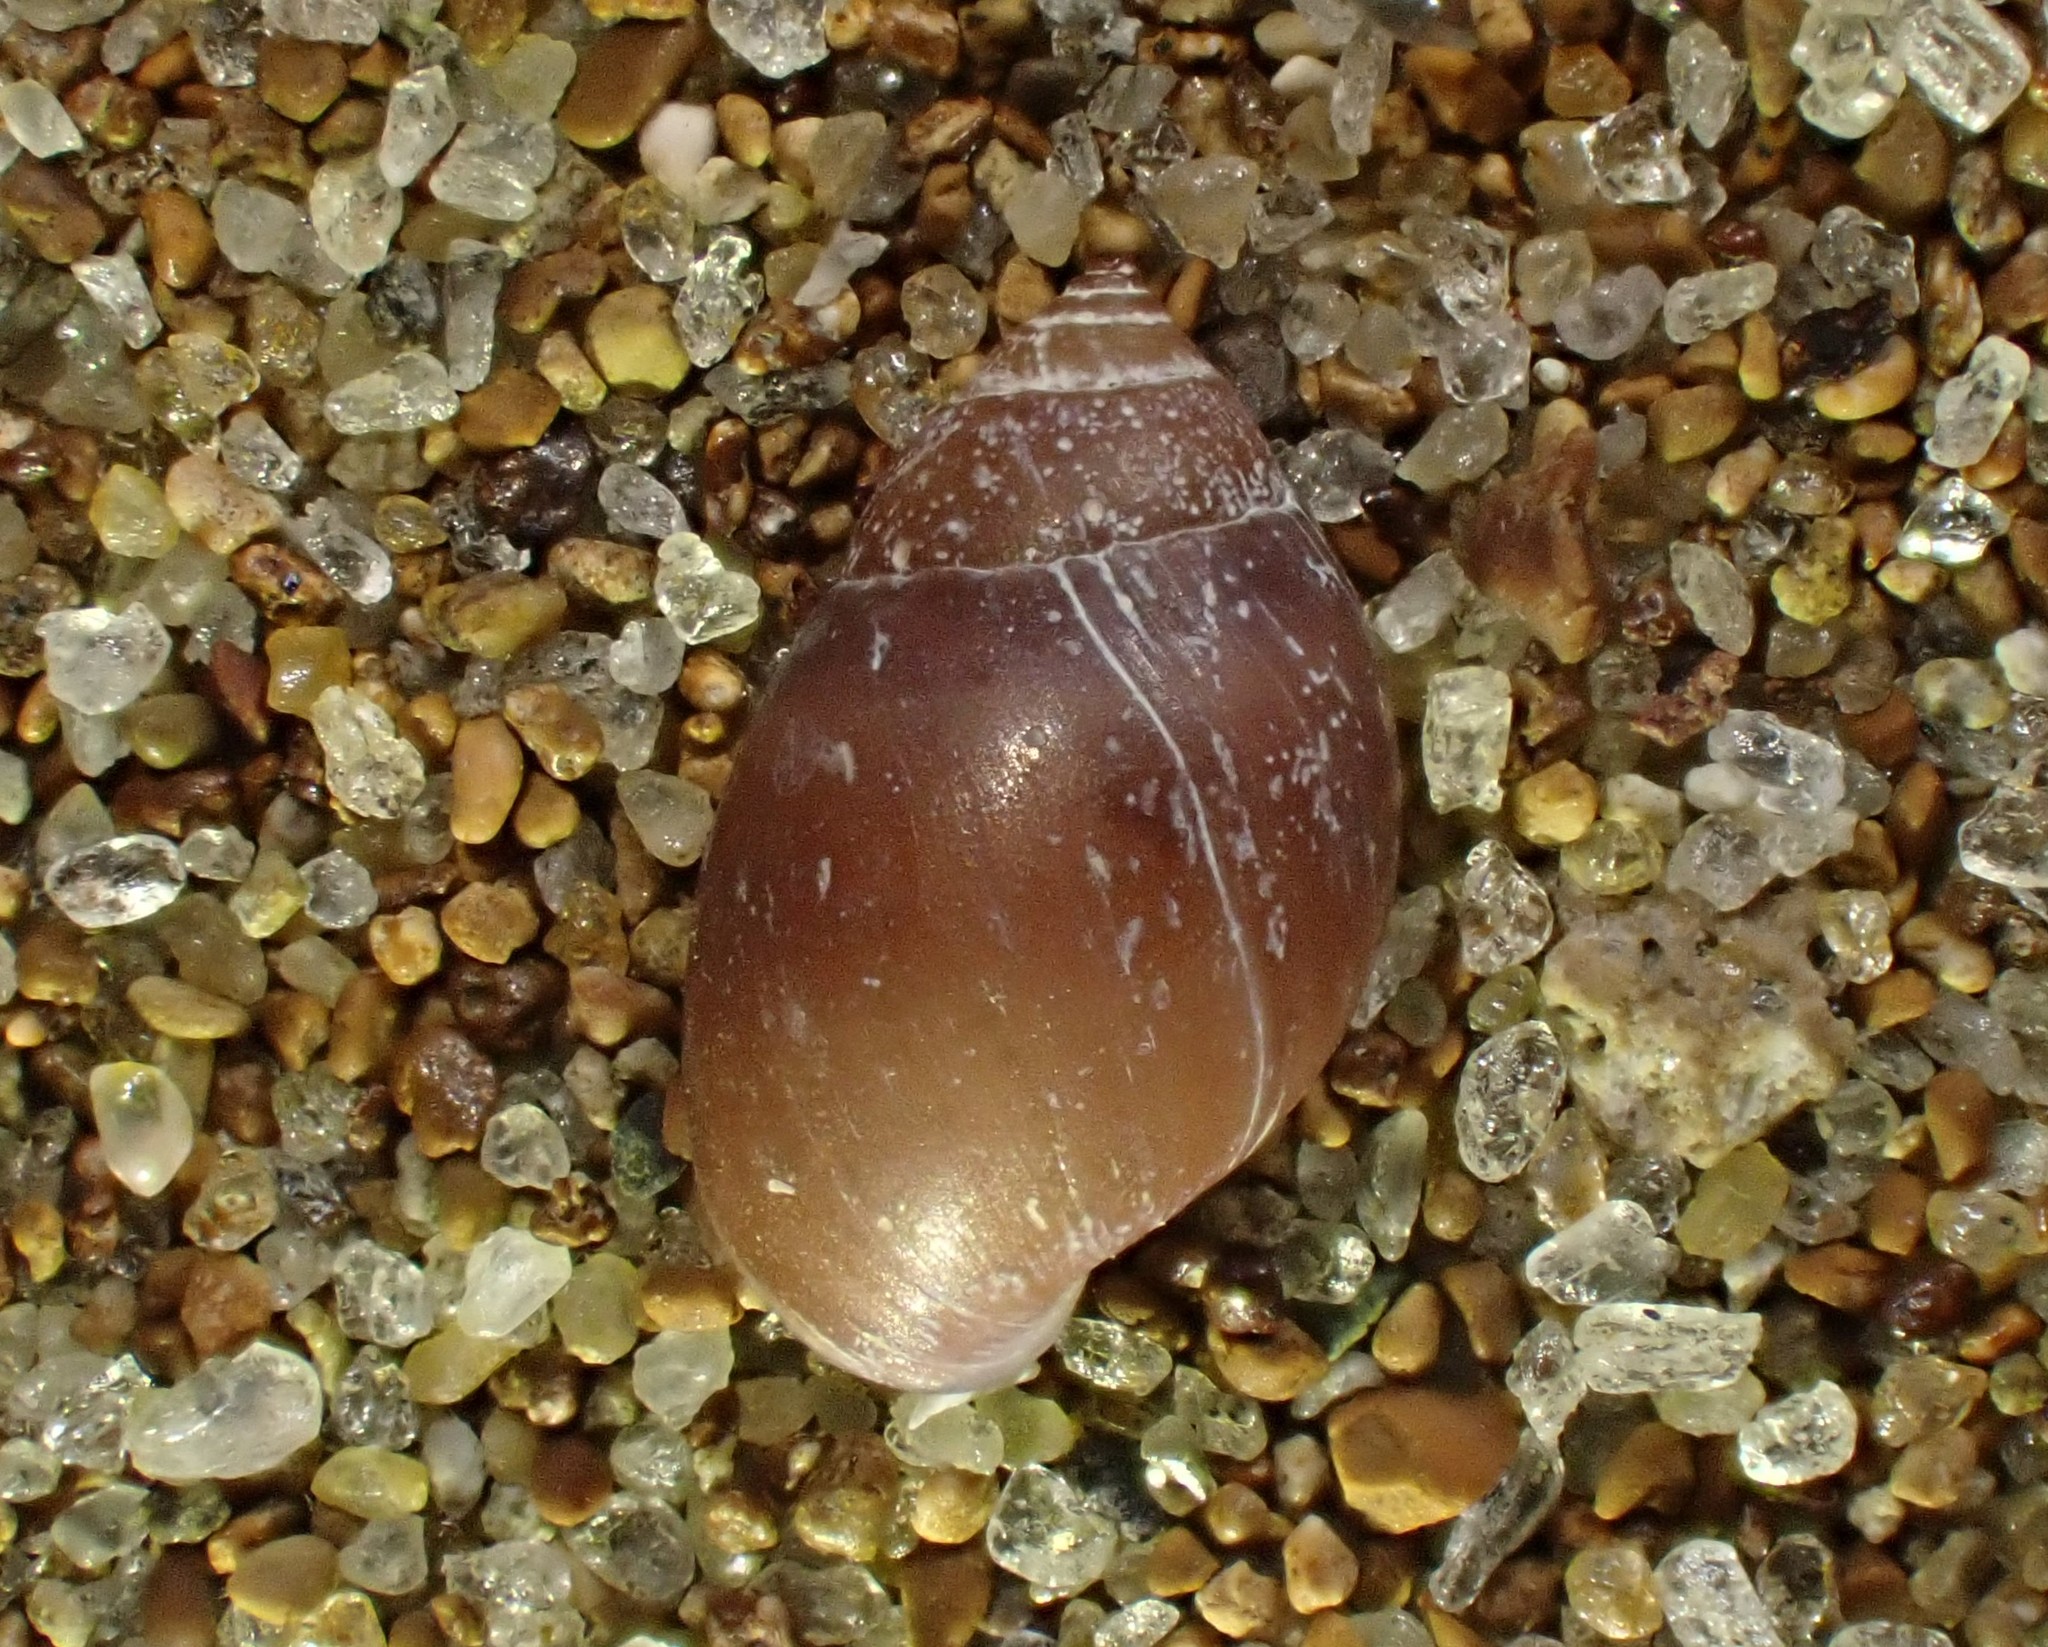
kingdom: Animalia
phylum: Mollusca
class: Gastropoda
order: Ellobiida
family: Ellobiidae
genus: Marinula
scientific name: Marinula filholi
